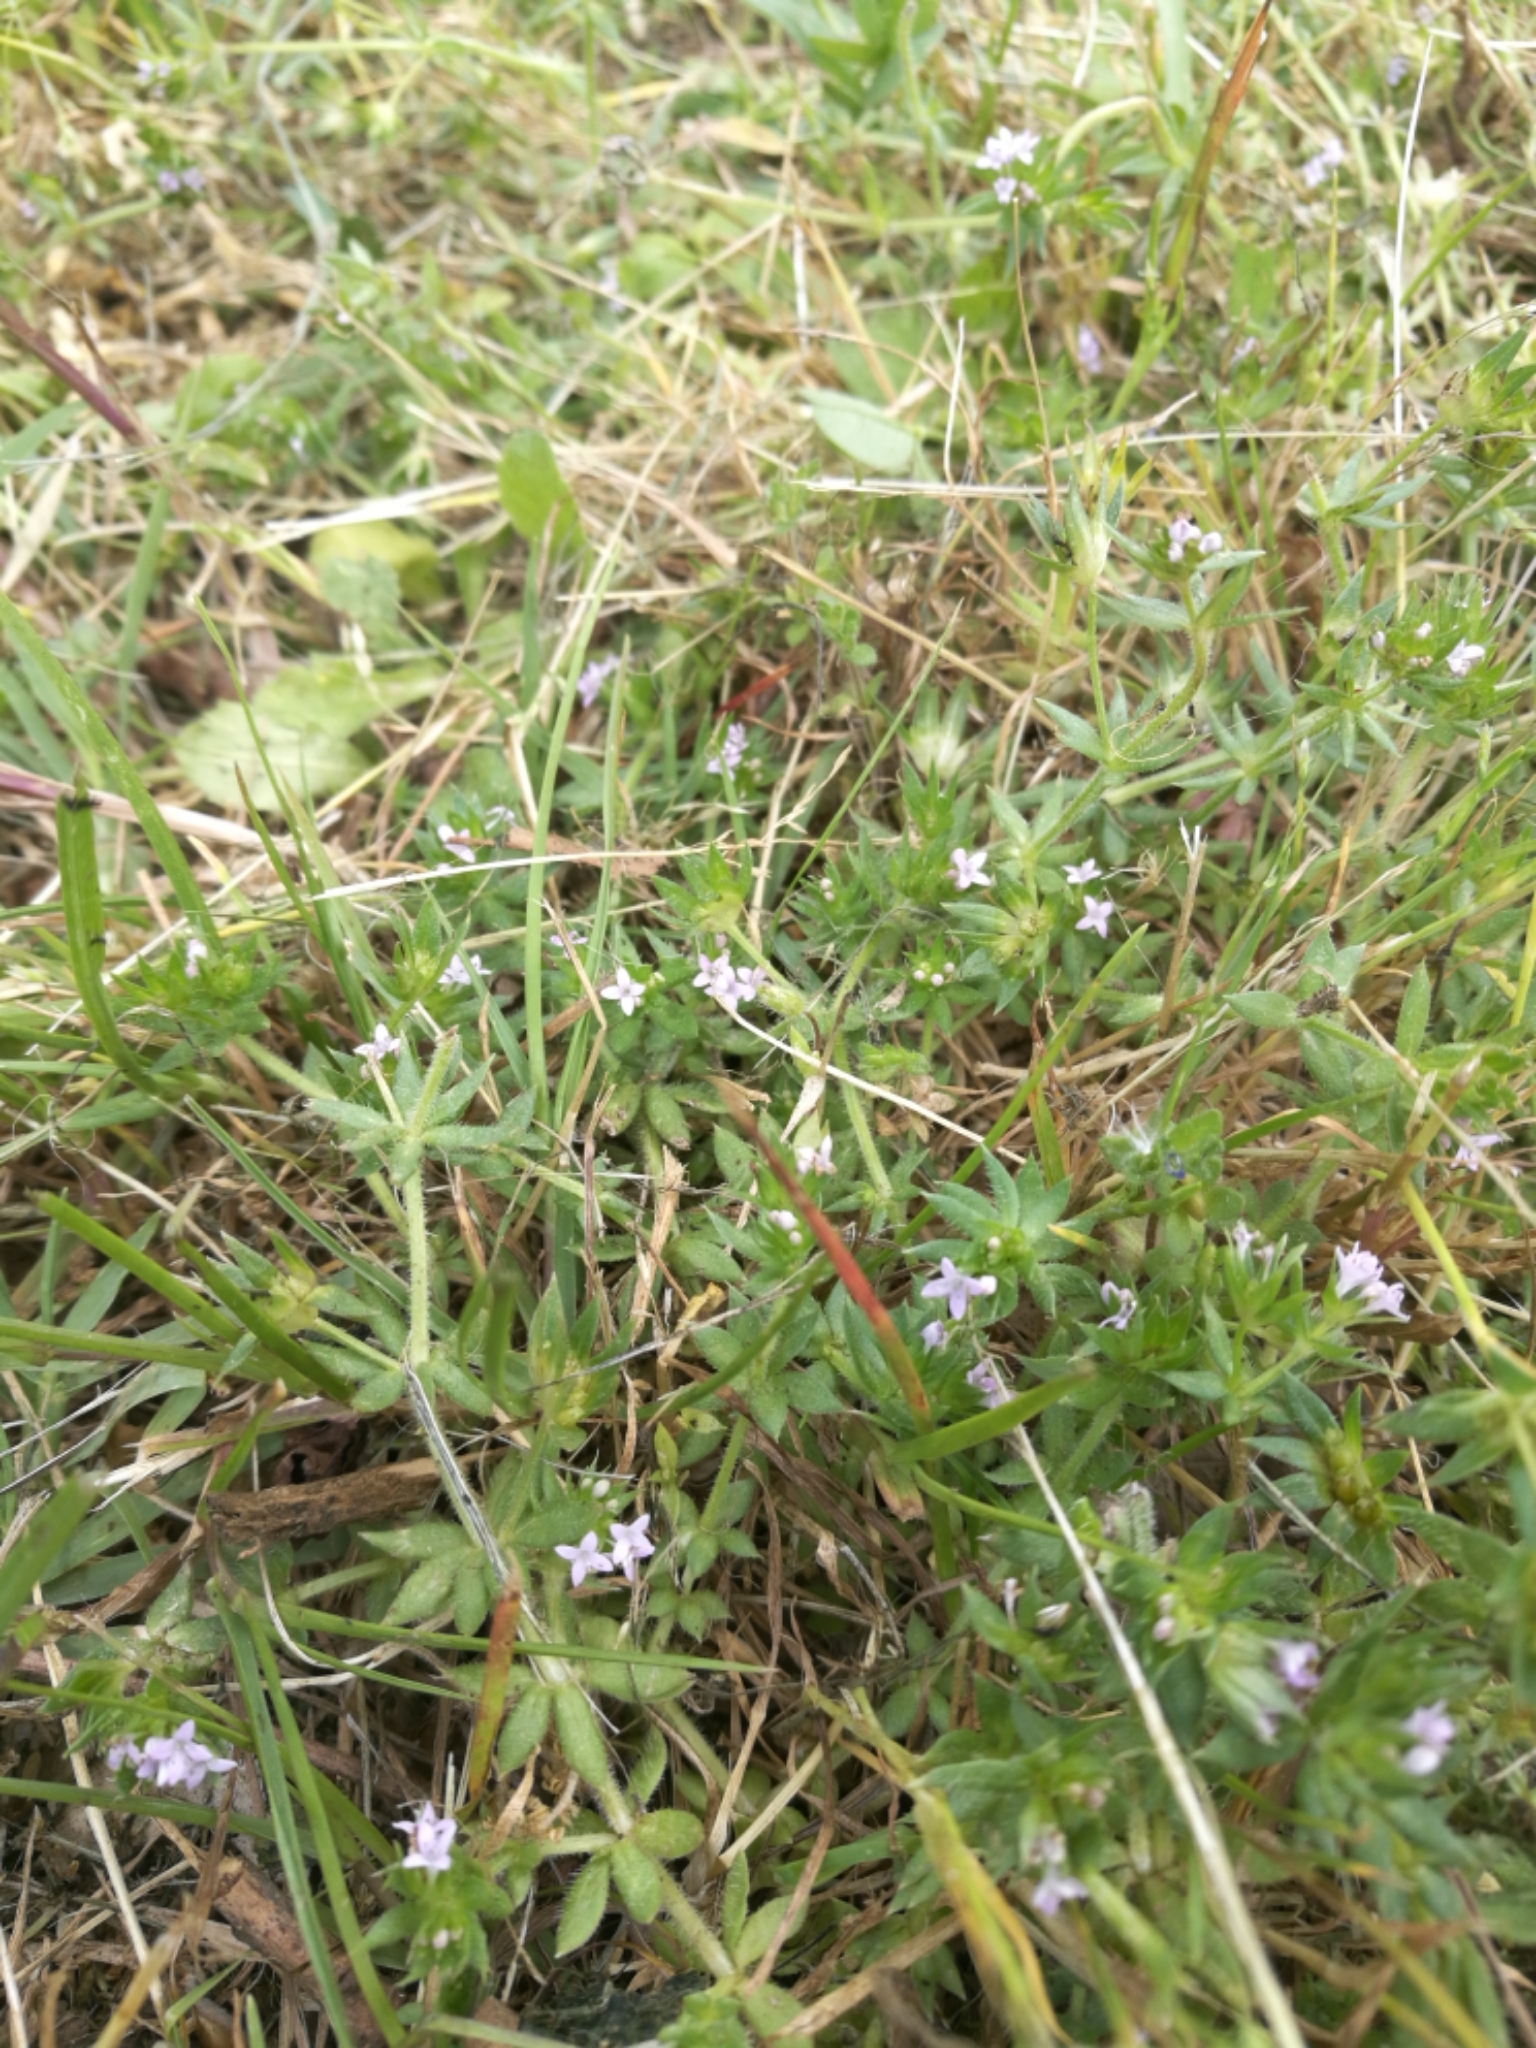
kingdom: Plantae
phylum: Tracheophyta
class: Magnoliopsida
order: Gentianales
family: Rubiaceae
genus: Sherardia
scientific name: Sherardia arvensis
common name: Field madder
